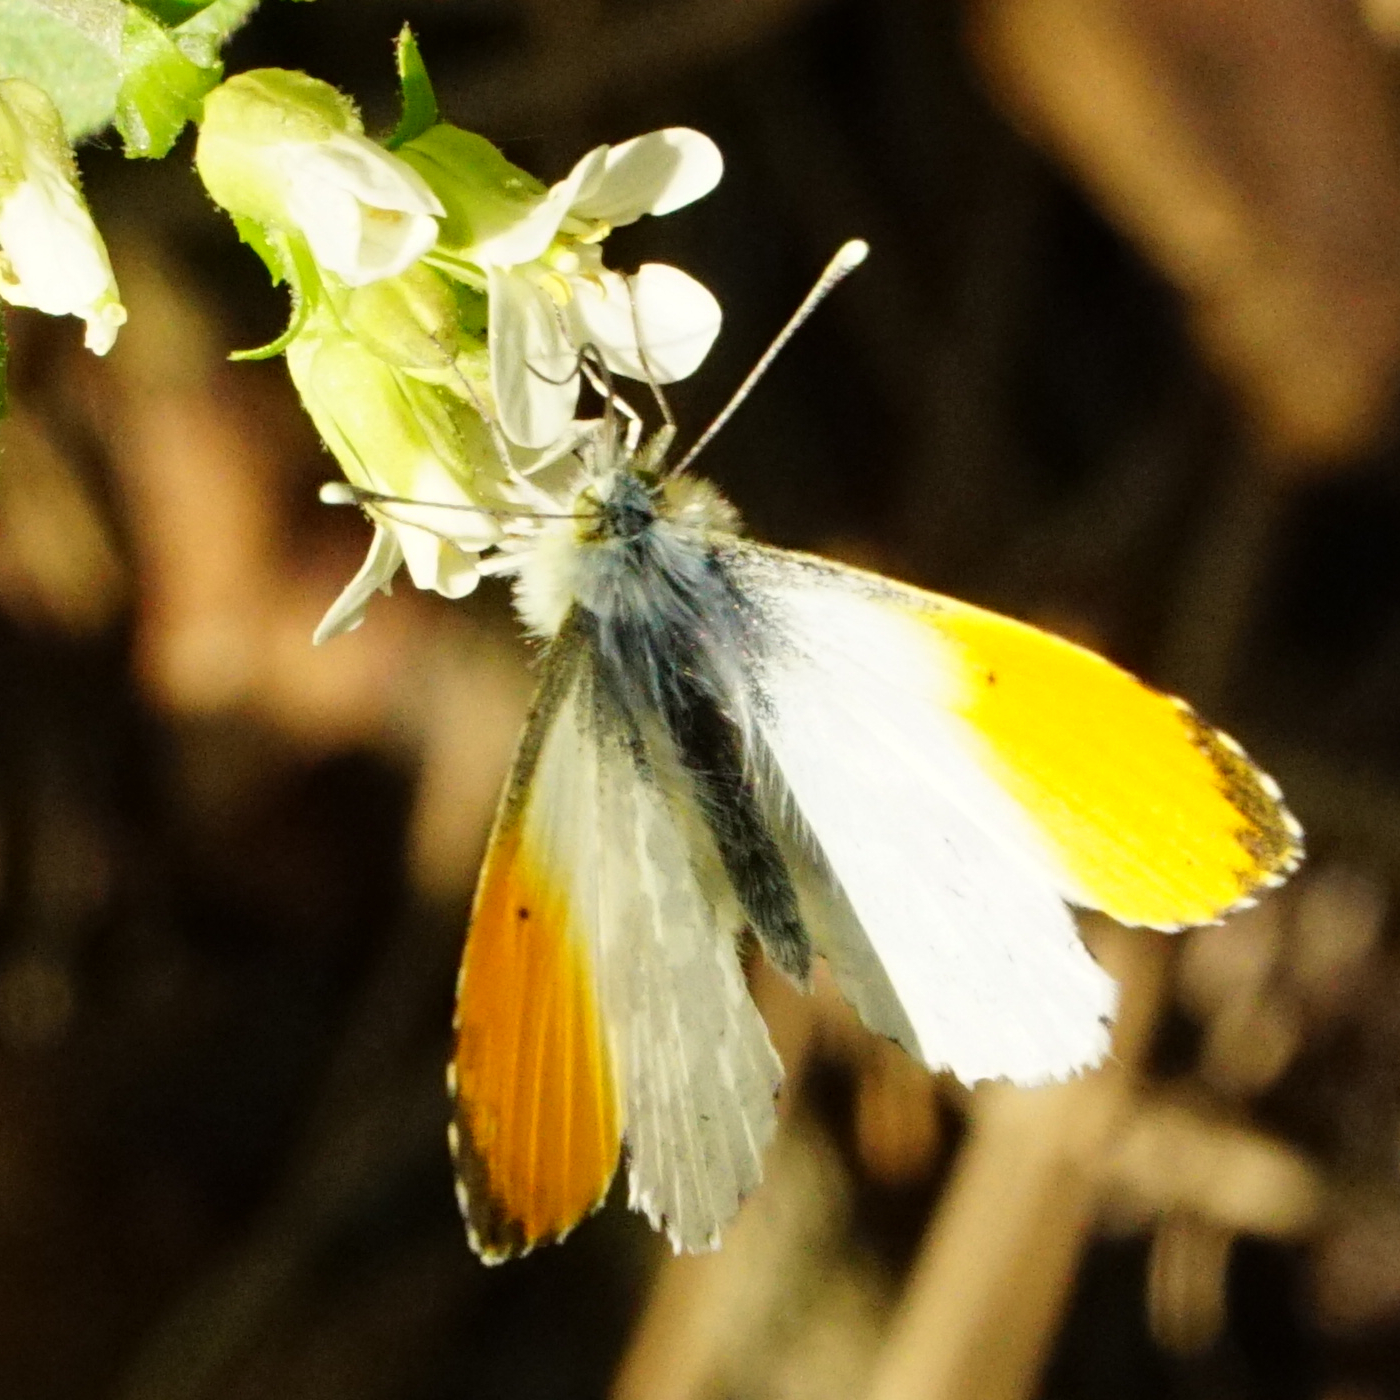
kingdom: Animalia
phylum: Arthropoda
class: Insecta
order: Lepidoptera
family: Pieridae
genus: Anthocharis
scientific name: Anthocharis cardamines
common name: Orange-tip
